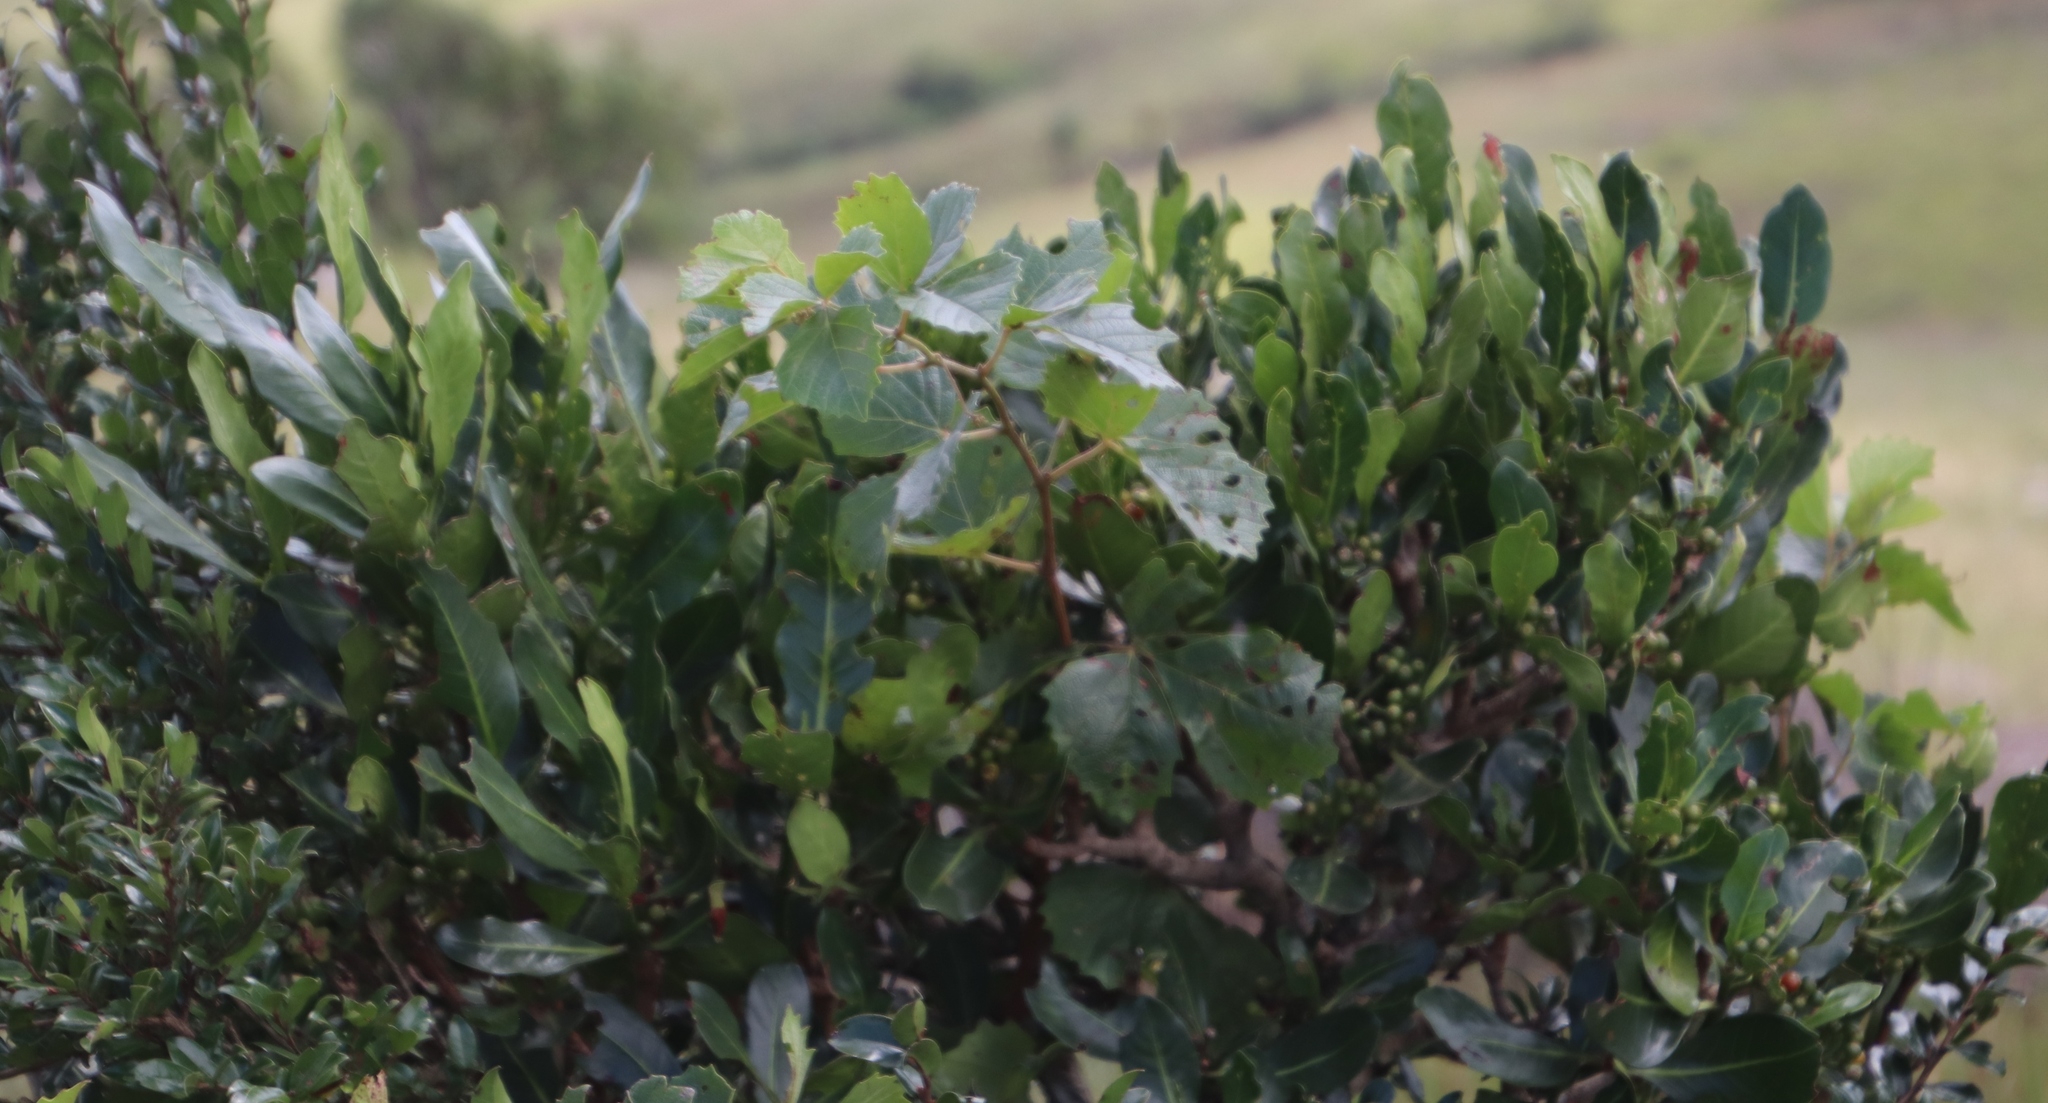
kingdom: Plantae
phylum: Tracheophyta
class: Magnoliopsida
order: Vitales
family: Vitaceae
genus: Rhoicissus
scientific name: Rhoicissus tridentata
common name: Common forest grape
